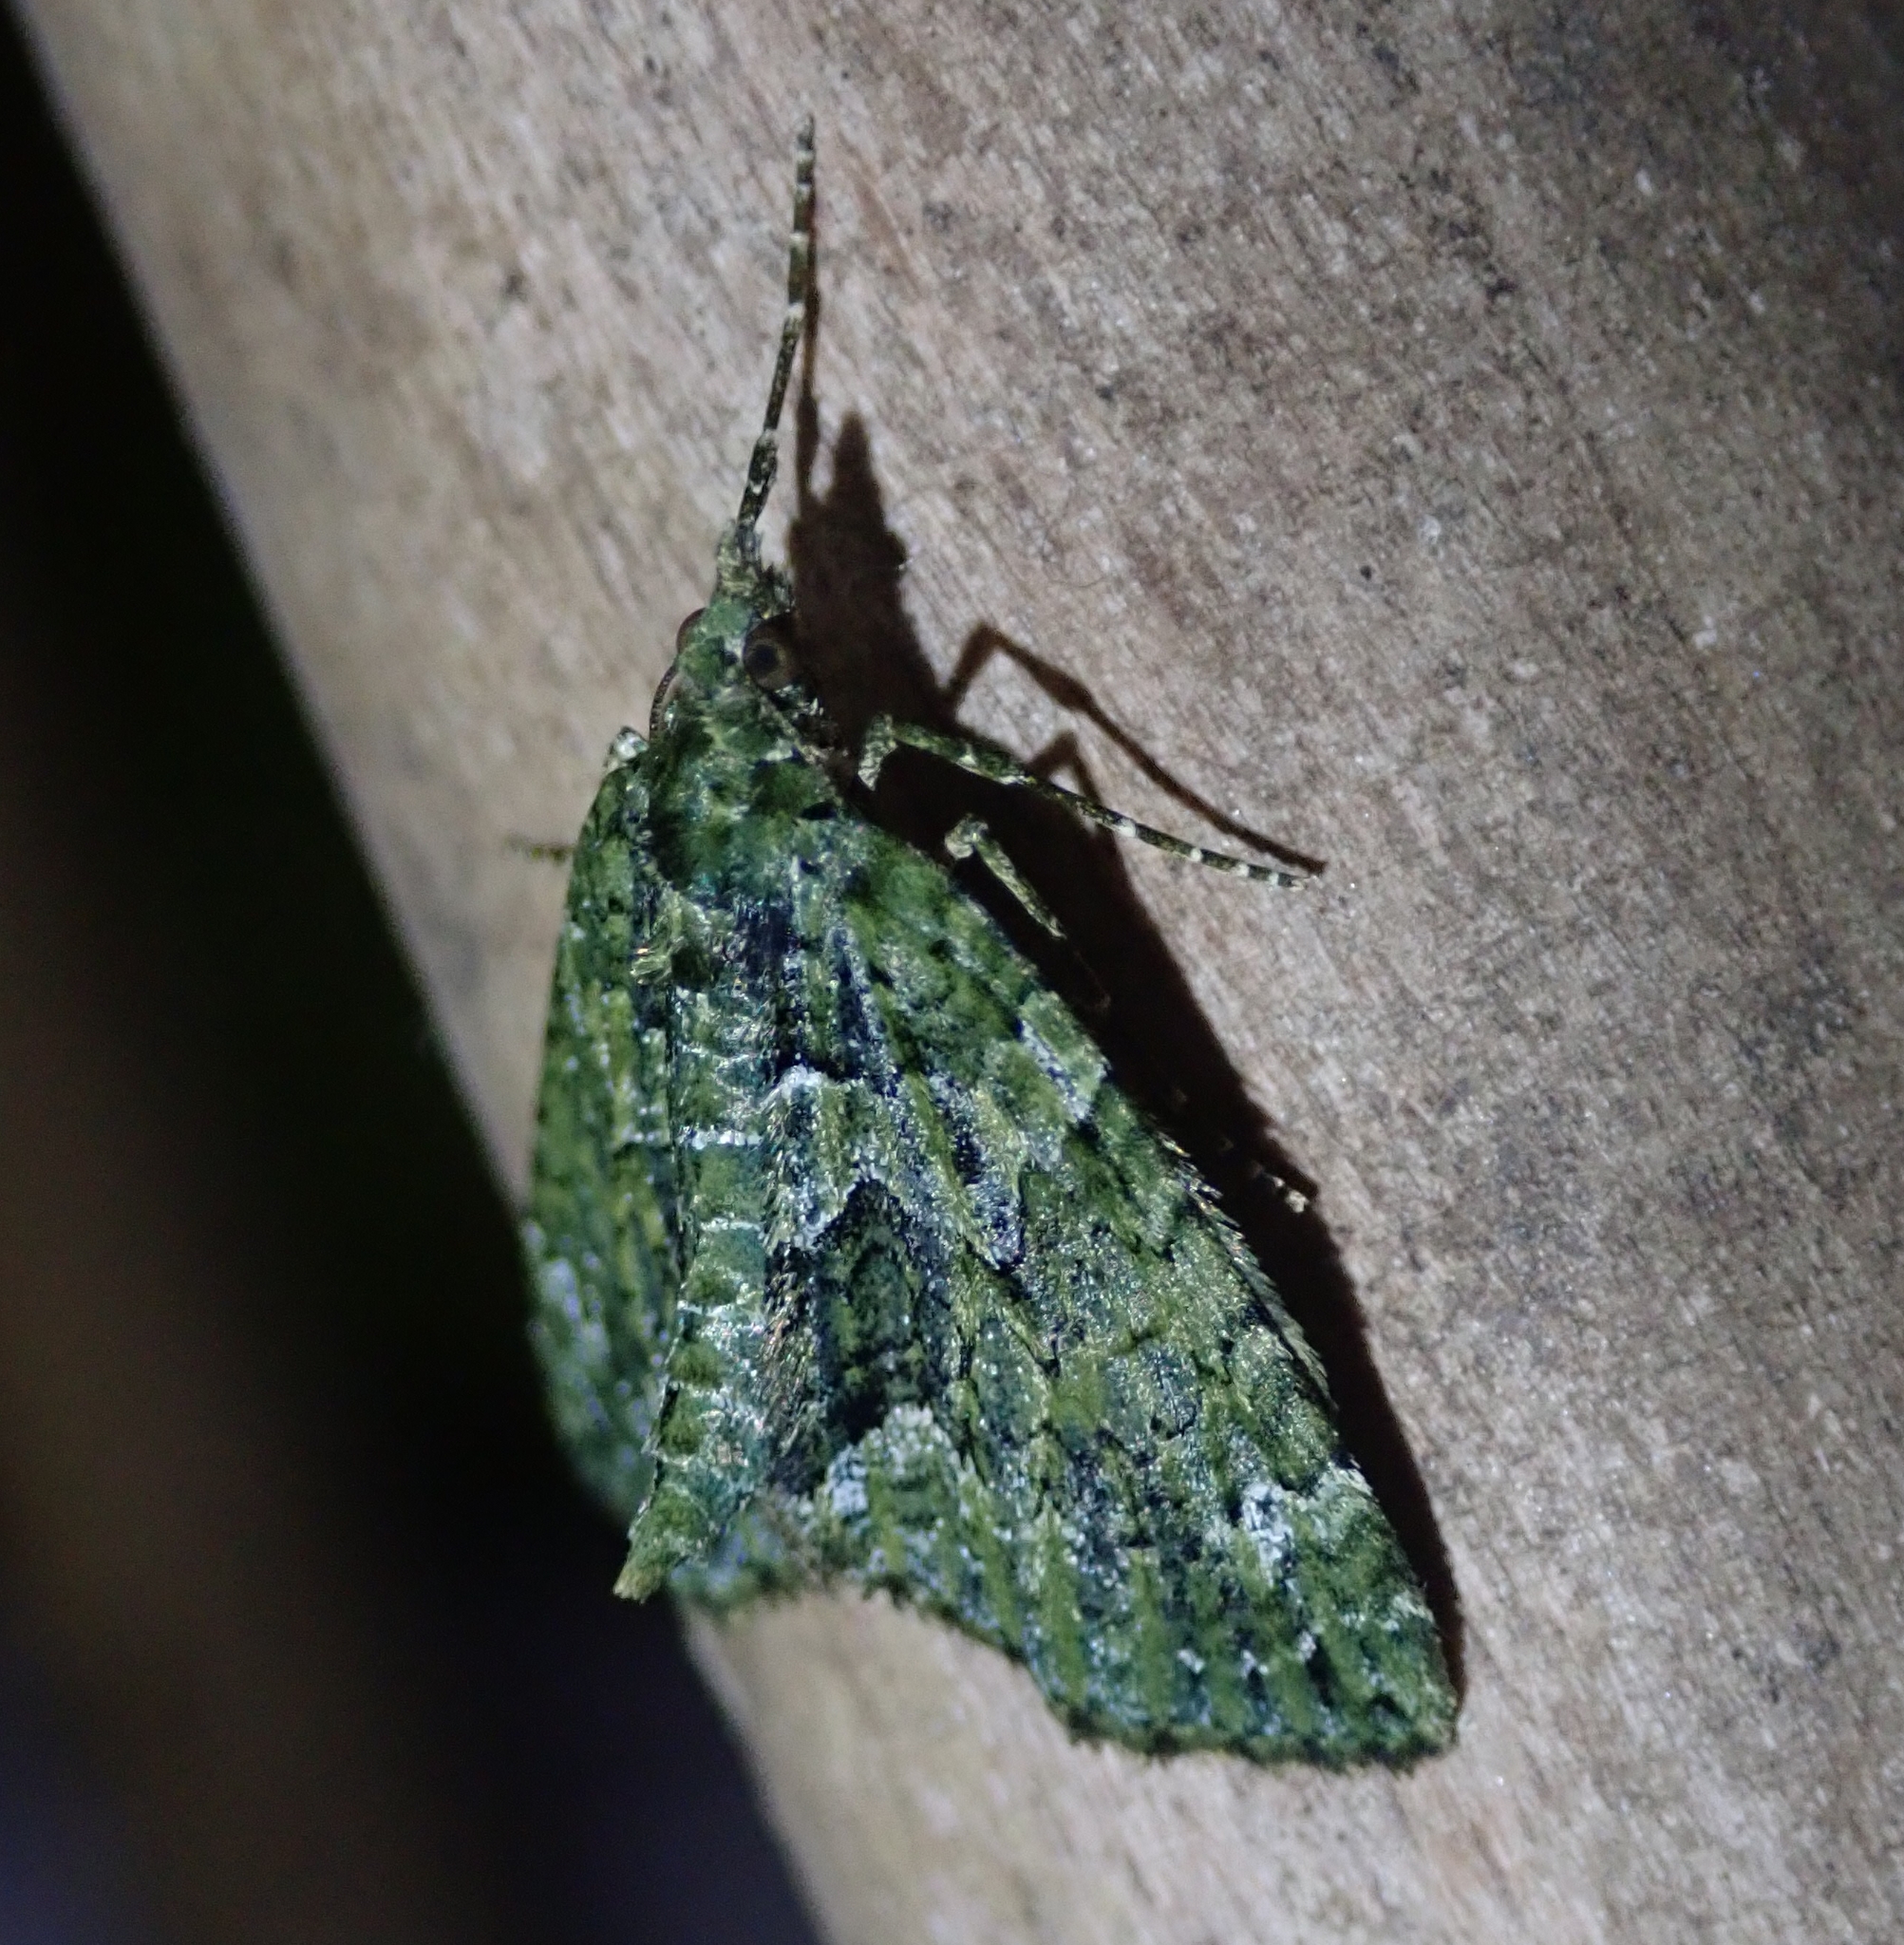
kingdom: Animalia
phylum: Arthropoda
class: Insecta
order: Lepidoptera
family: Geometridae
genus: Chloroclysta
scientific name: Chloroclysta siterata
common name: Red-green carpet
